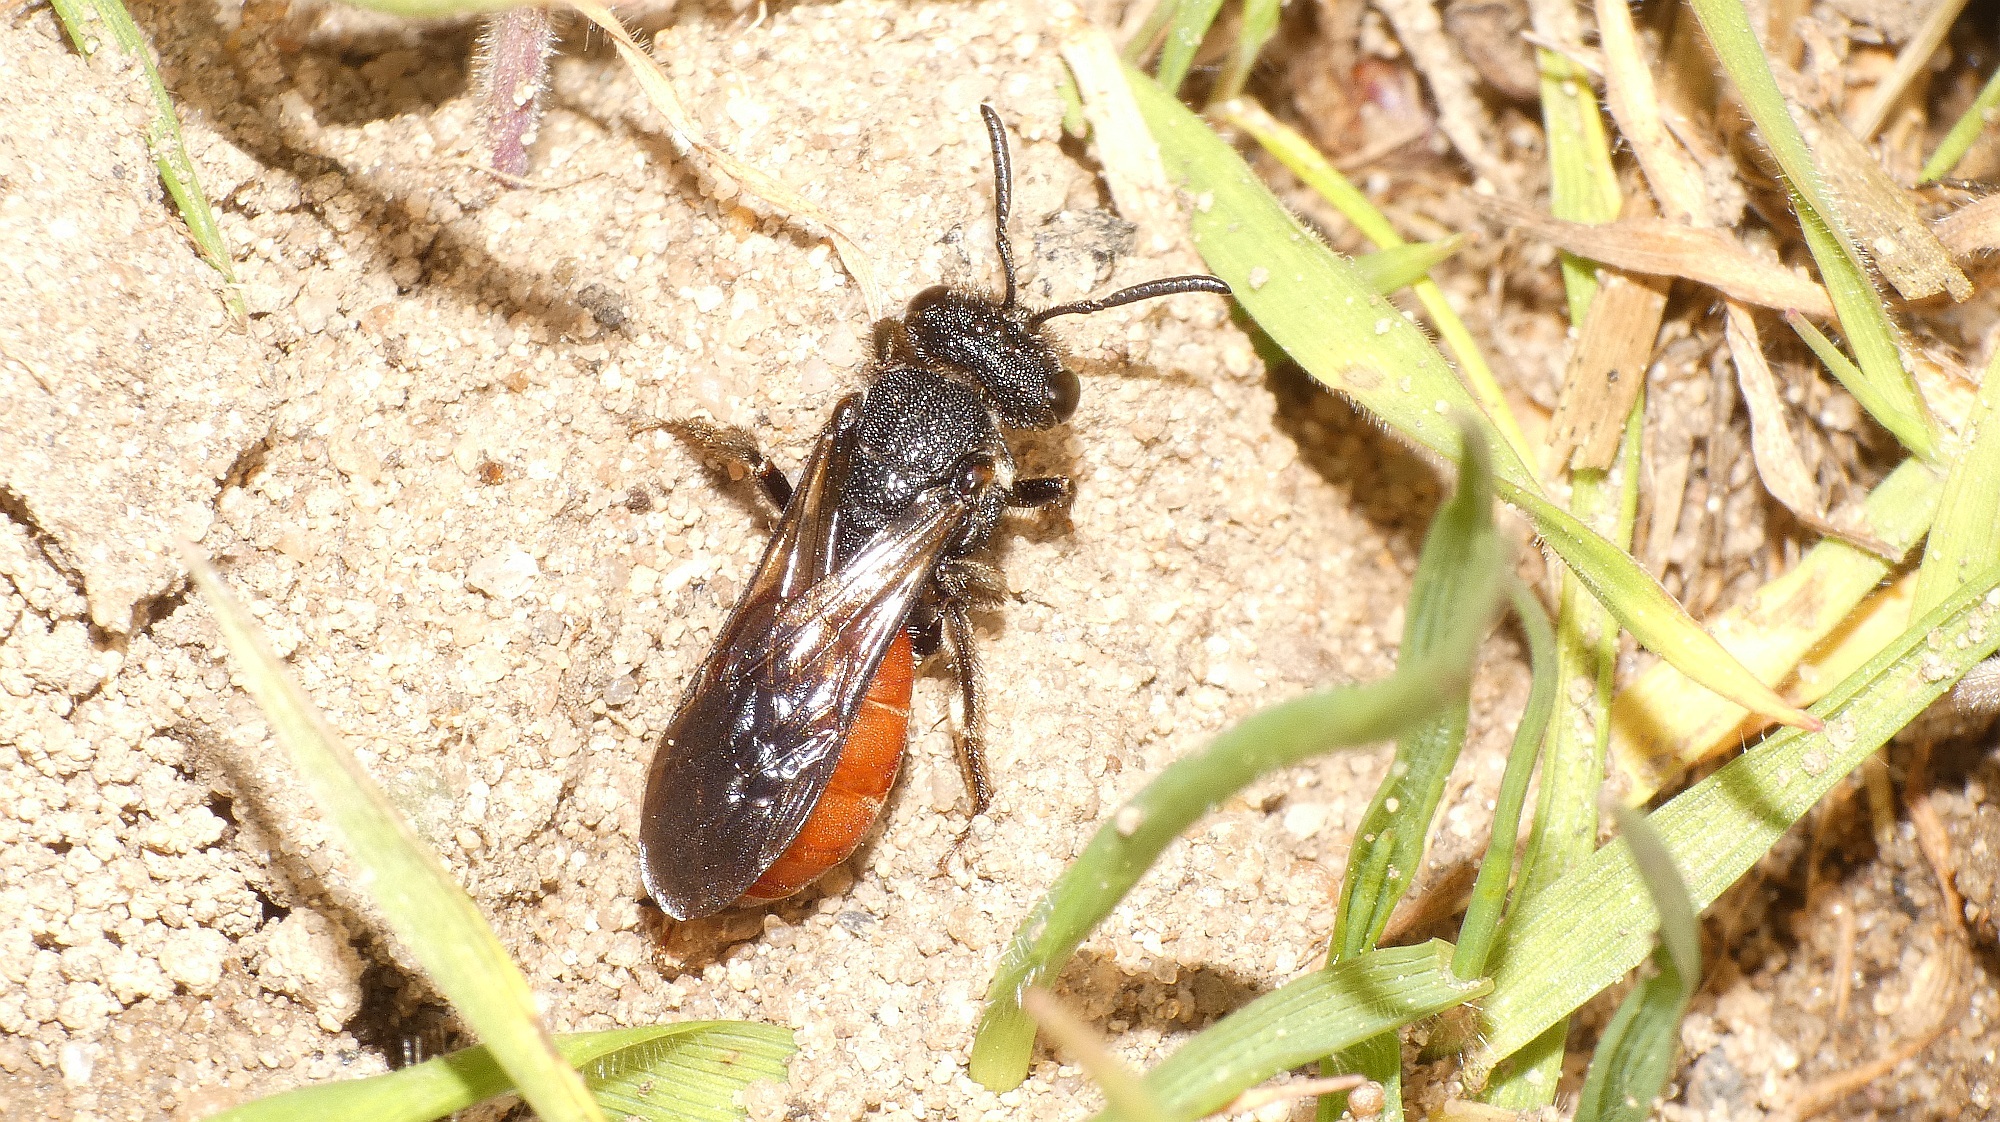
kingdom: Animalia
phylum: Arthropoda
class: Insecta
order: Hymenoptera
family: Halictidae
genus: Sphecodes
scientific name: Sphecodes albilabris
